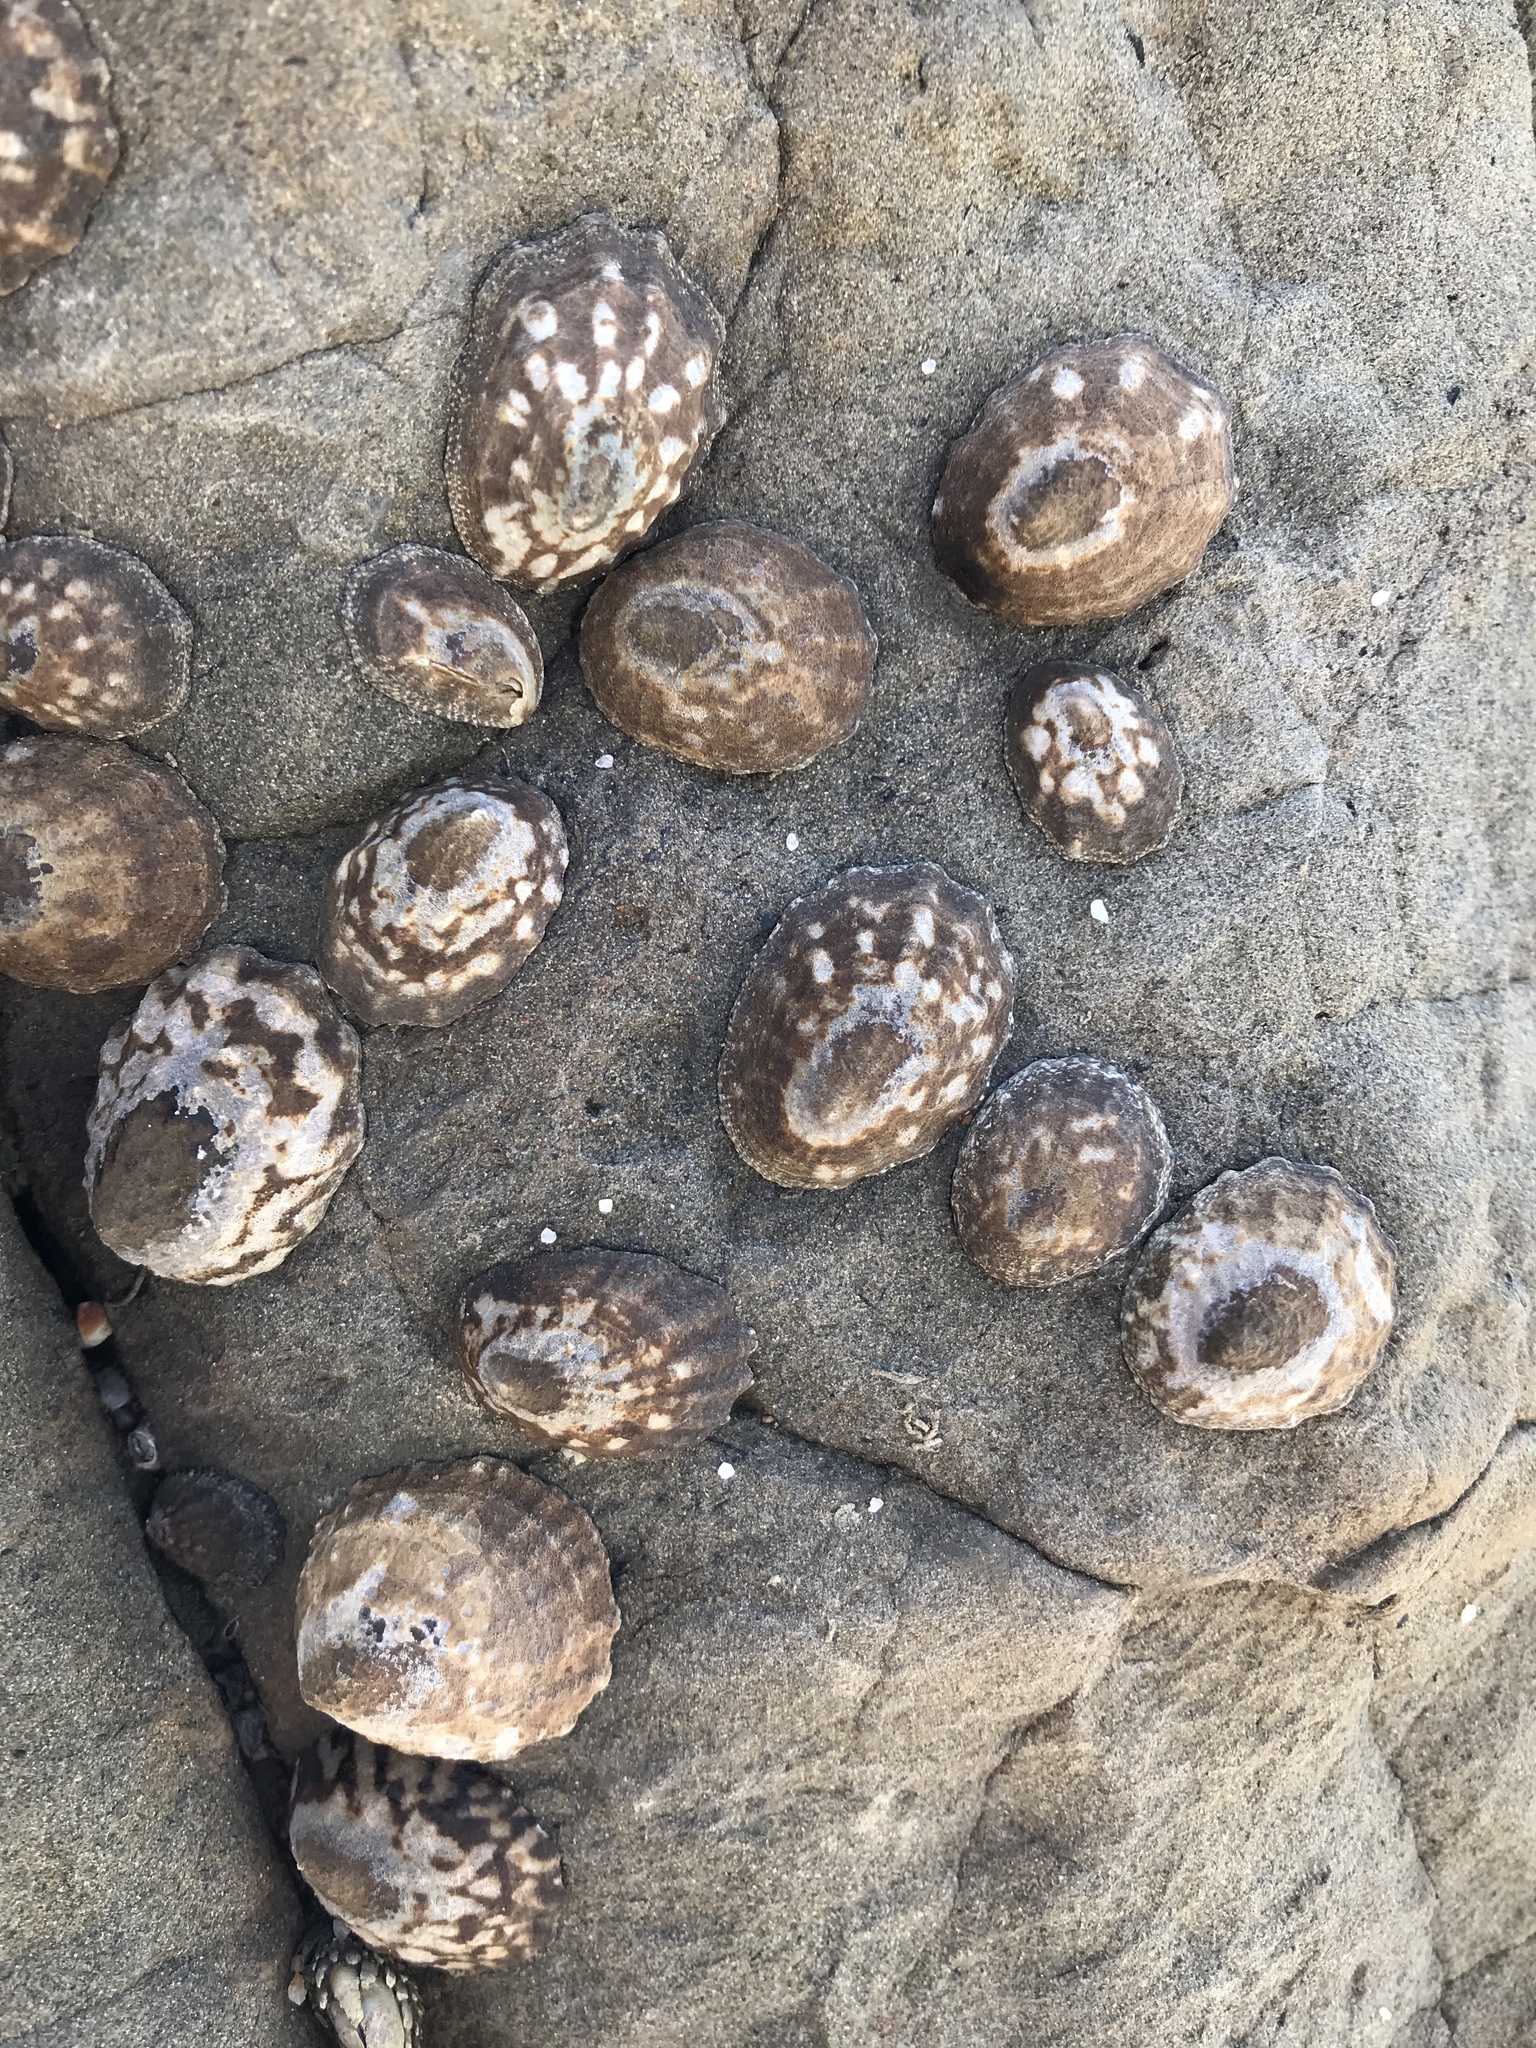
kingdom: Animalia
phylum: Mollusca
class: Gastropoda
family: Lottiidae
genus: Lottia
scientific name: Lottia digitalis
